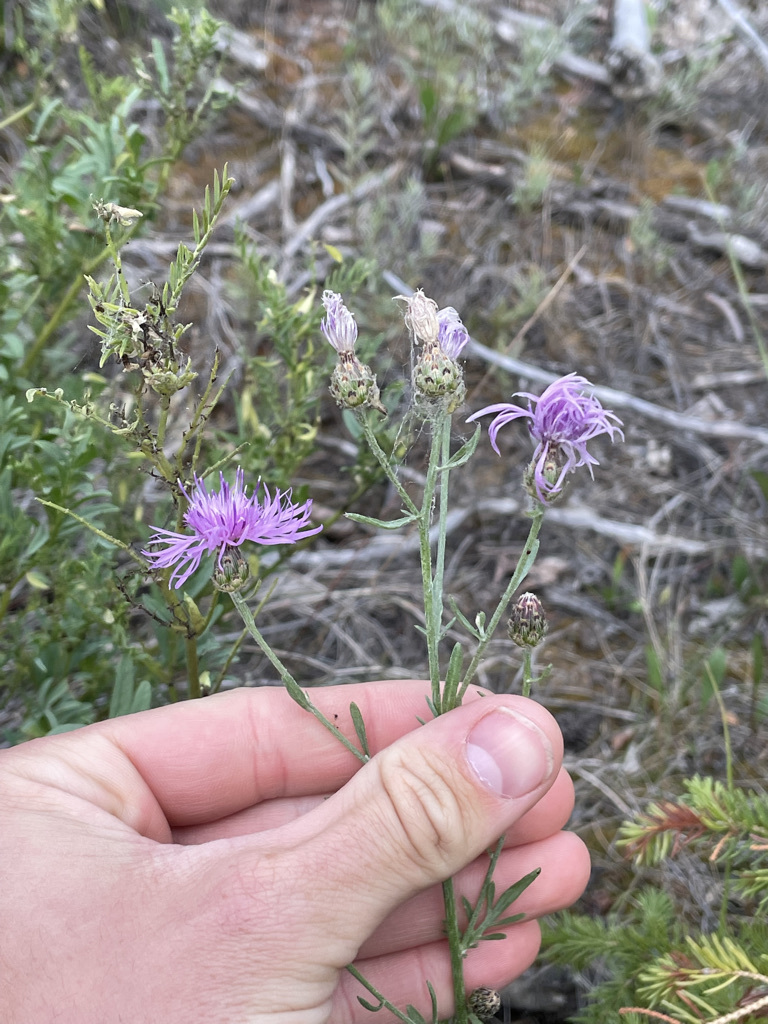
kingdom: Plantae
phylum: Tracheophyta
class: Magnoliopsida
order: Asterales
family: Asteraceae
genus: Centaurea
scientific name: Centaurea stoebe
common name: Spotted knapweed
